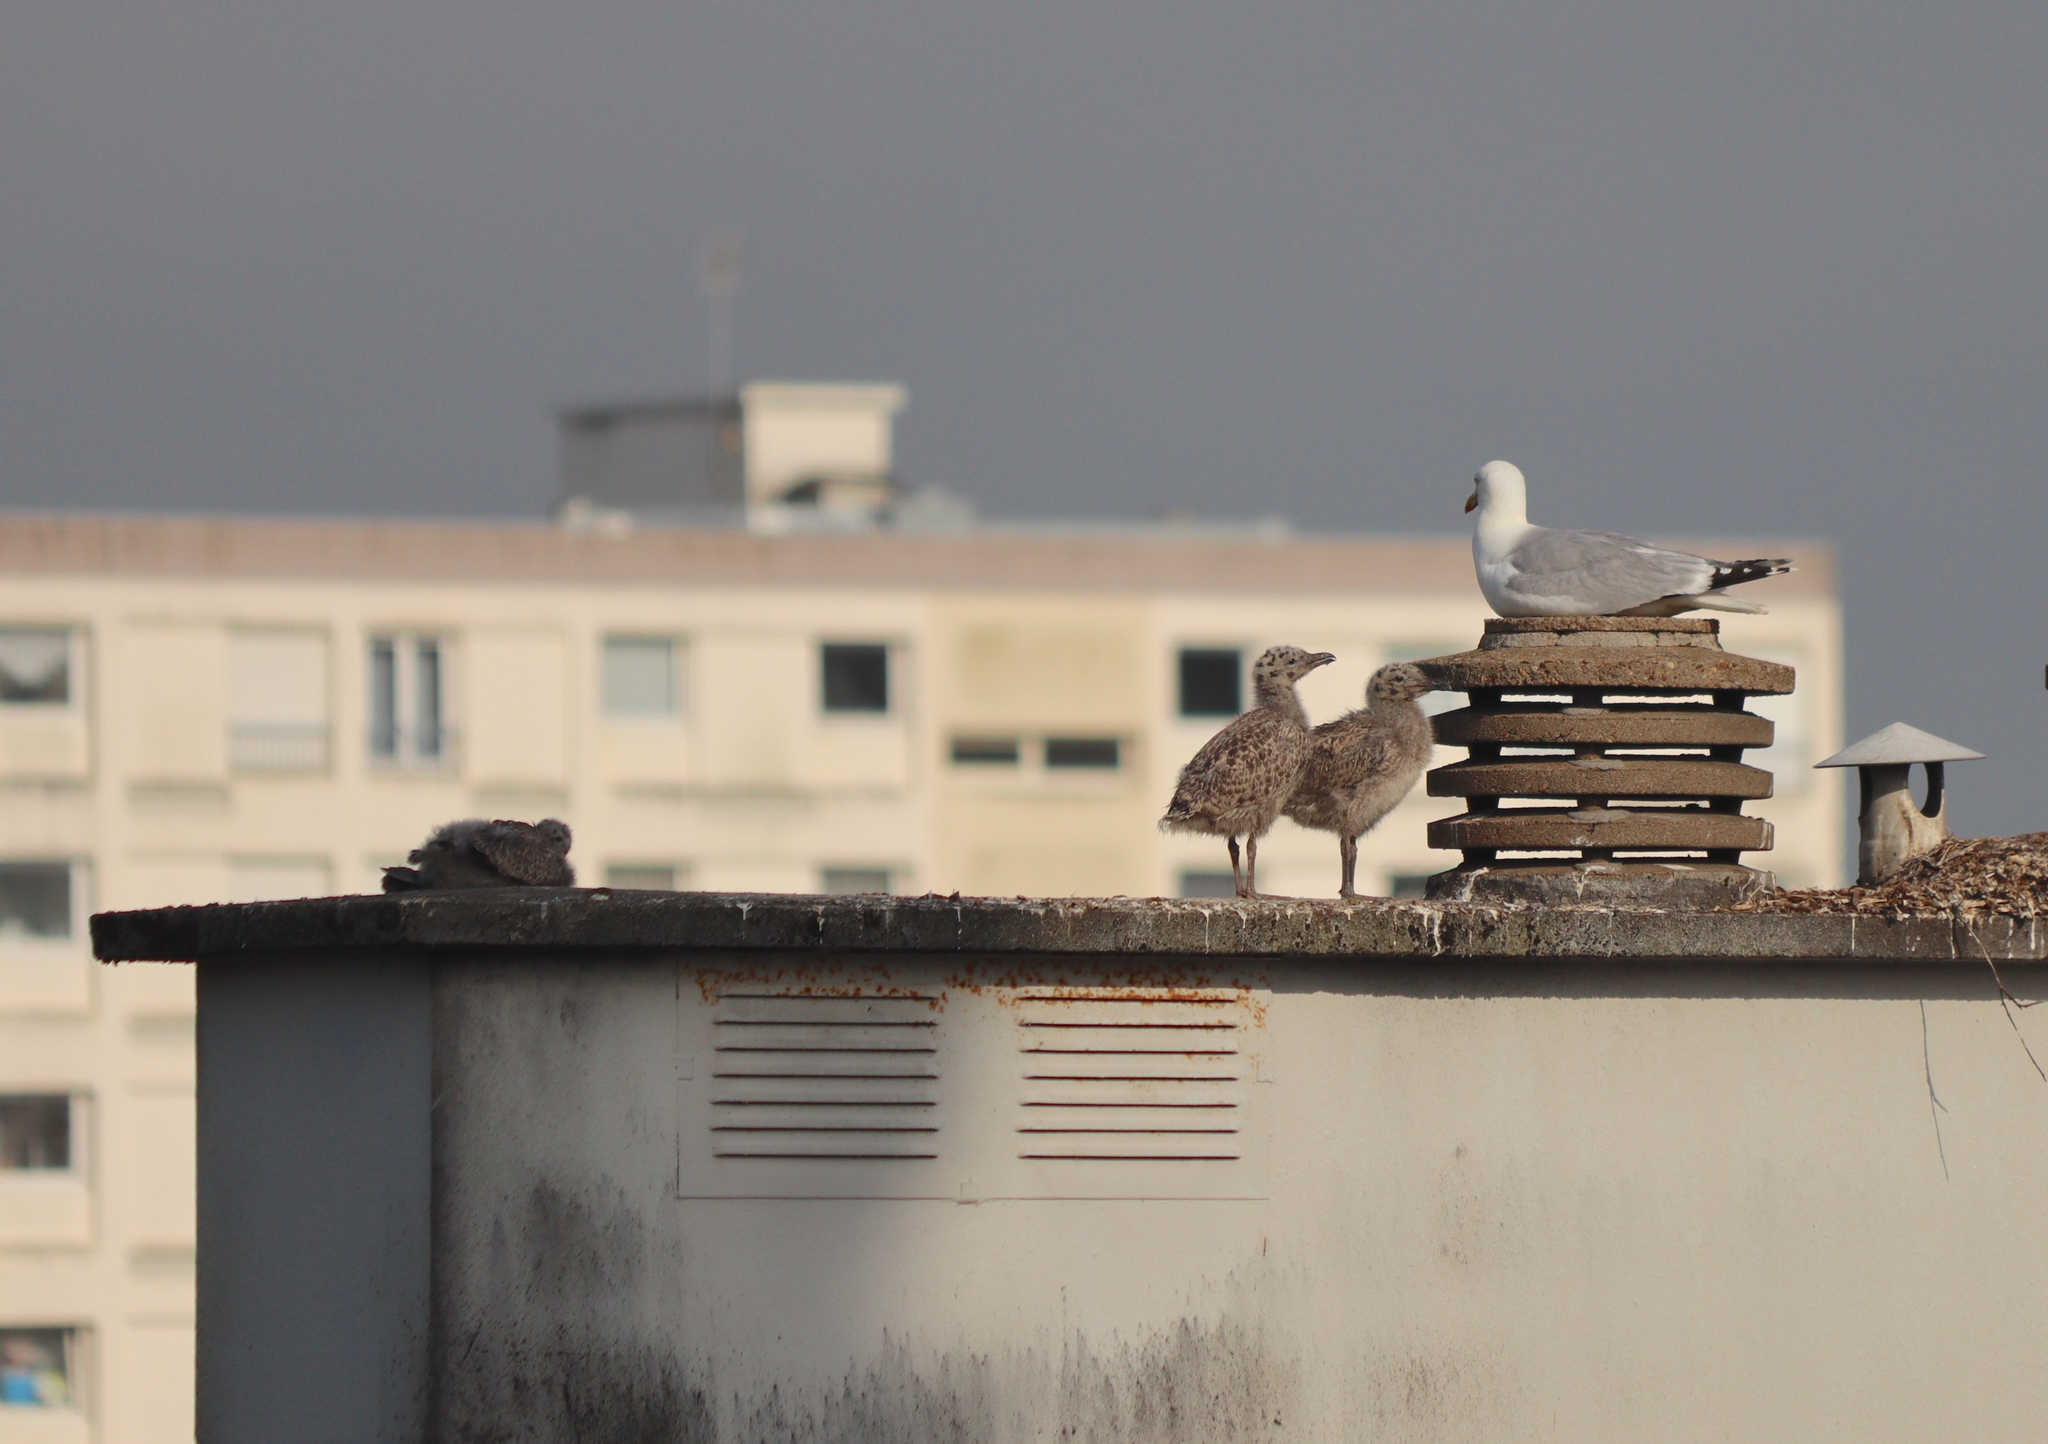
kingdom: Animalia
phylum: Chordata
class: Aves
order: Charadriiformes
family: Laridae
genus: Larus
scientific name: Larus argentatus
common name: Herring gull
